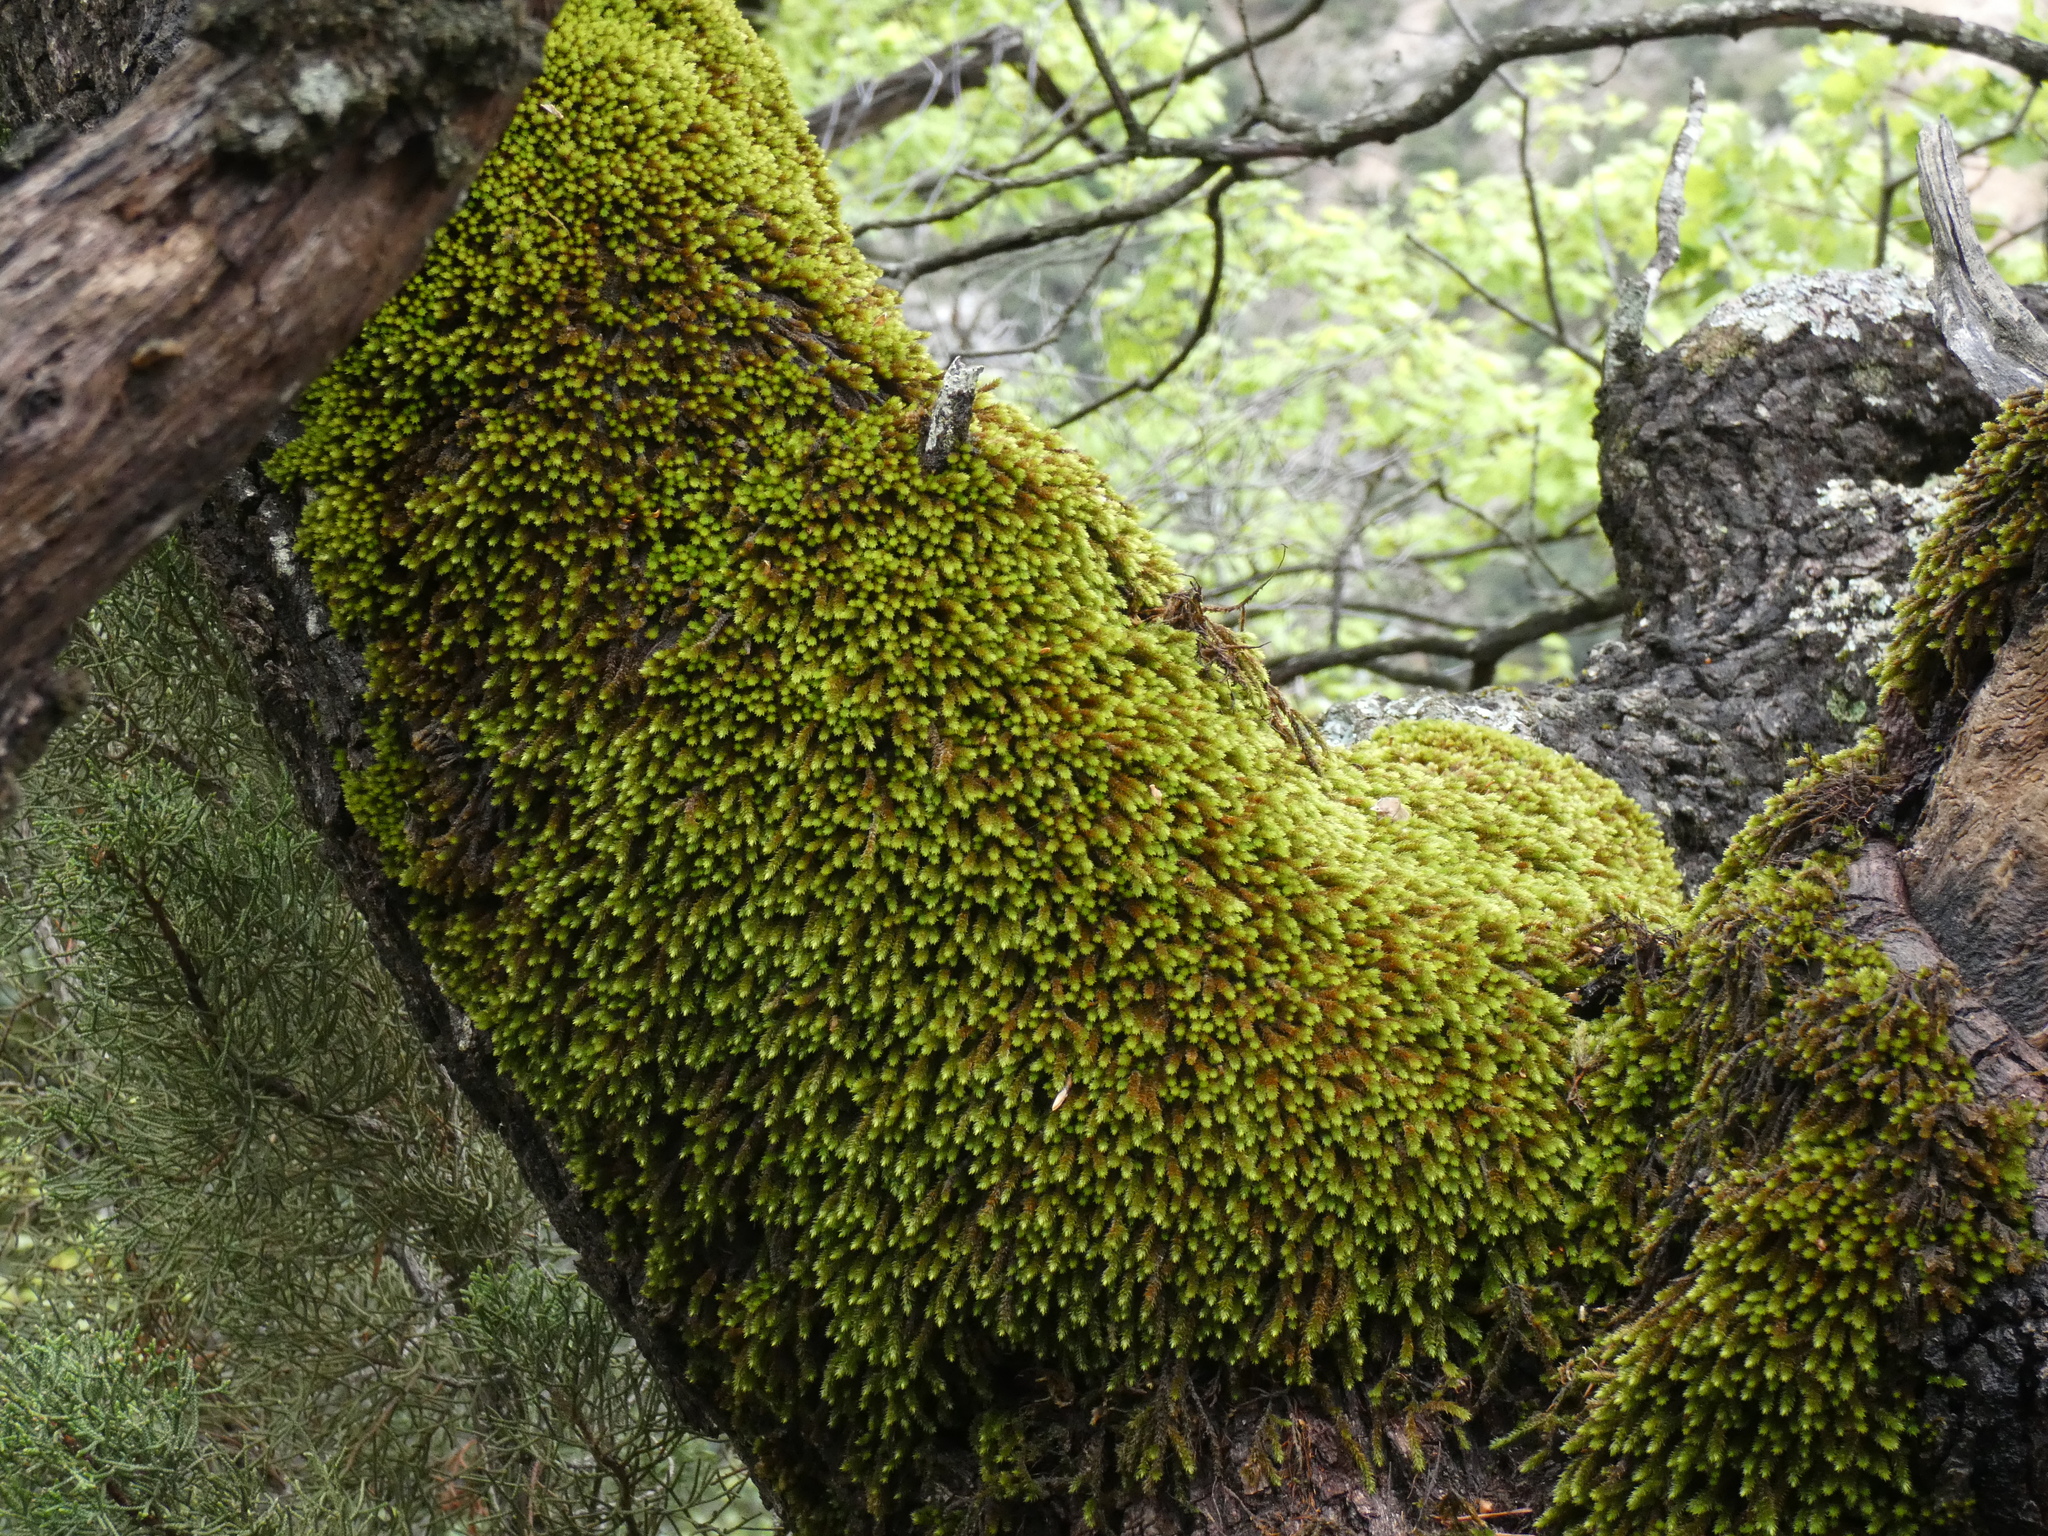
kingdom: Plantae
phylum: Bryophyta
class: Bryopsida
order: Hypnales
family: Leucodontaceae
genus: Leucodon
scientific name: Leucodon sciuroides
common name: Squirrel-tail moss
